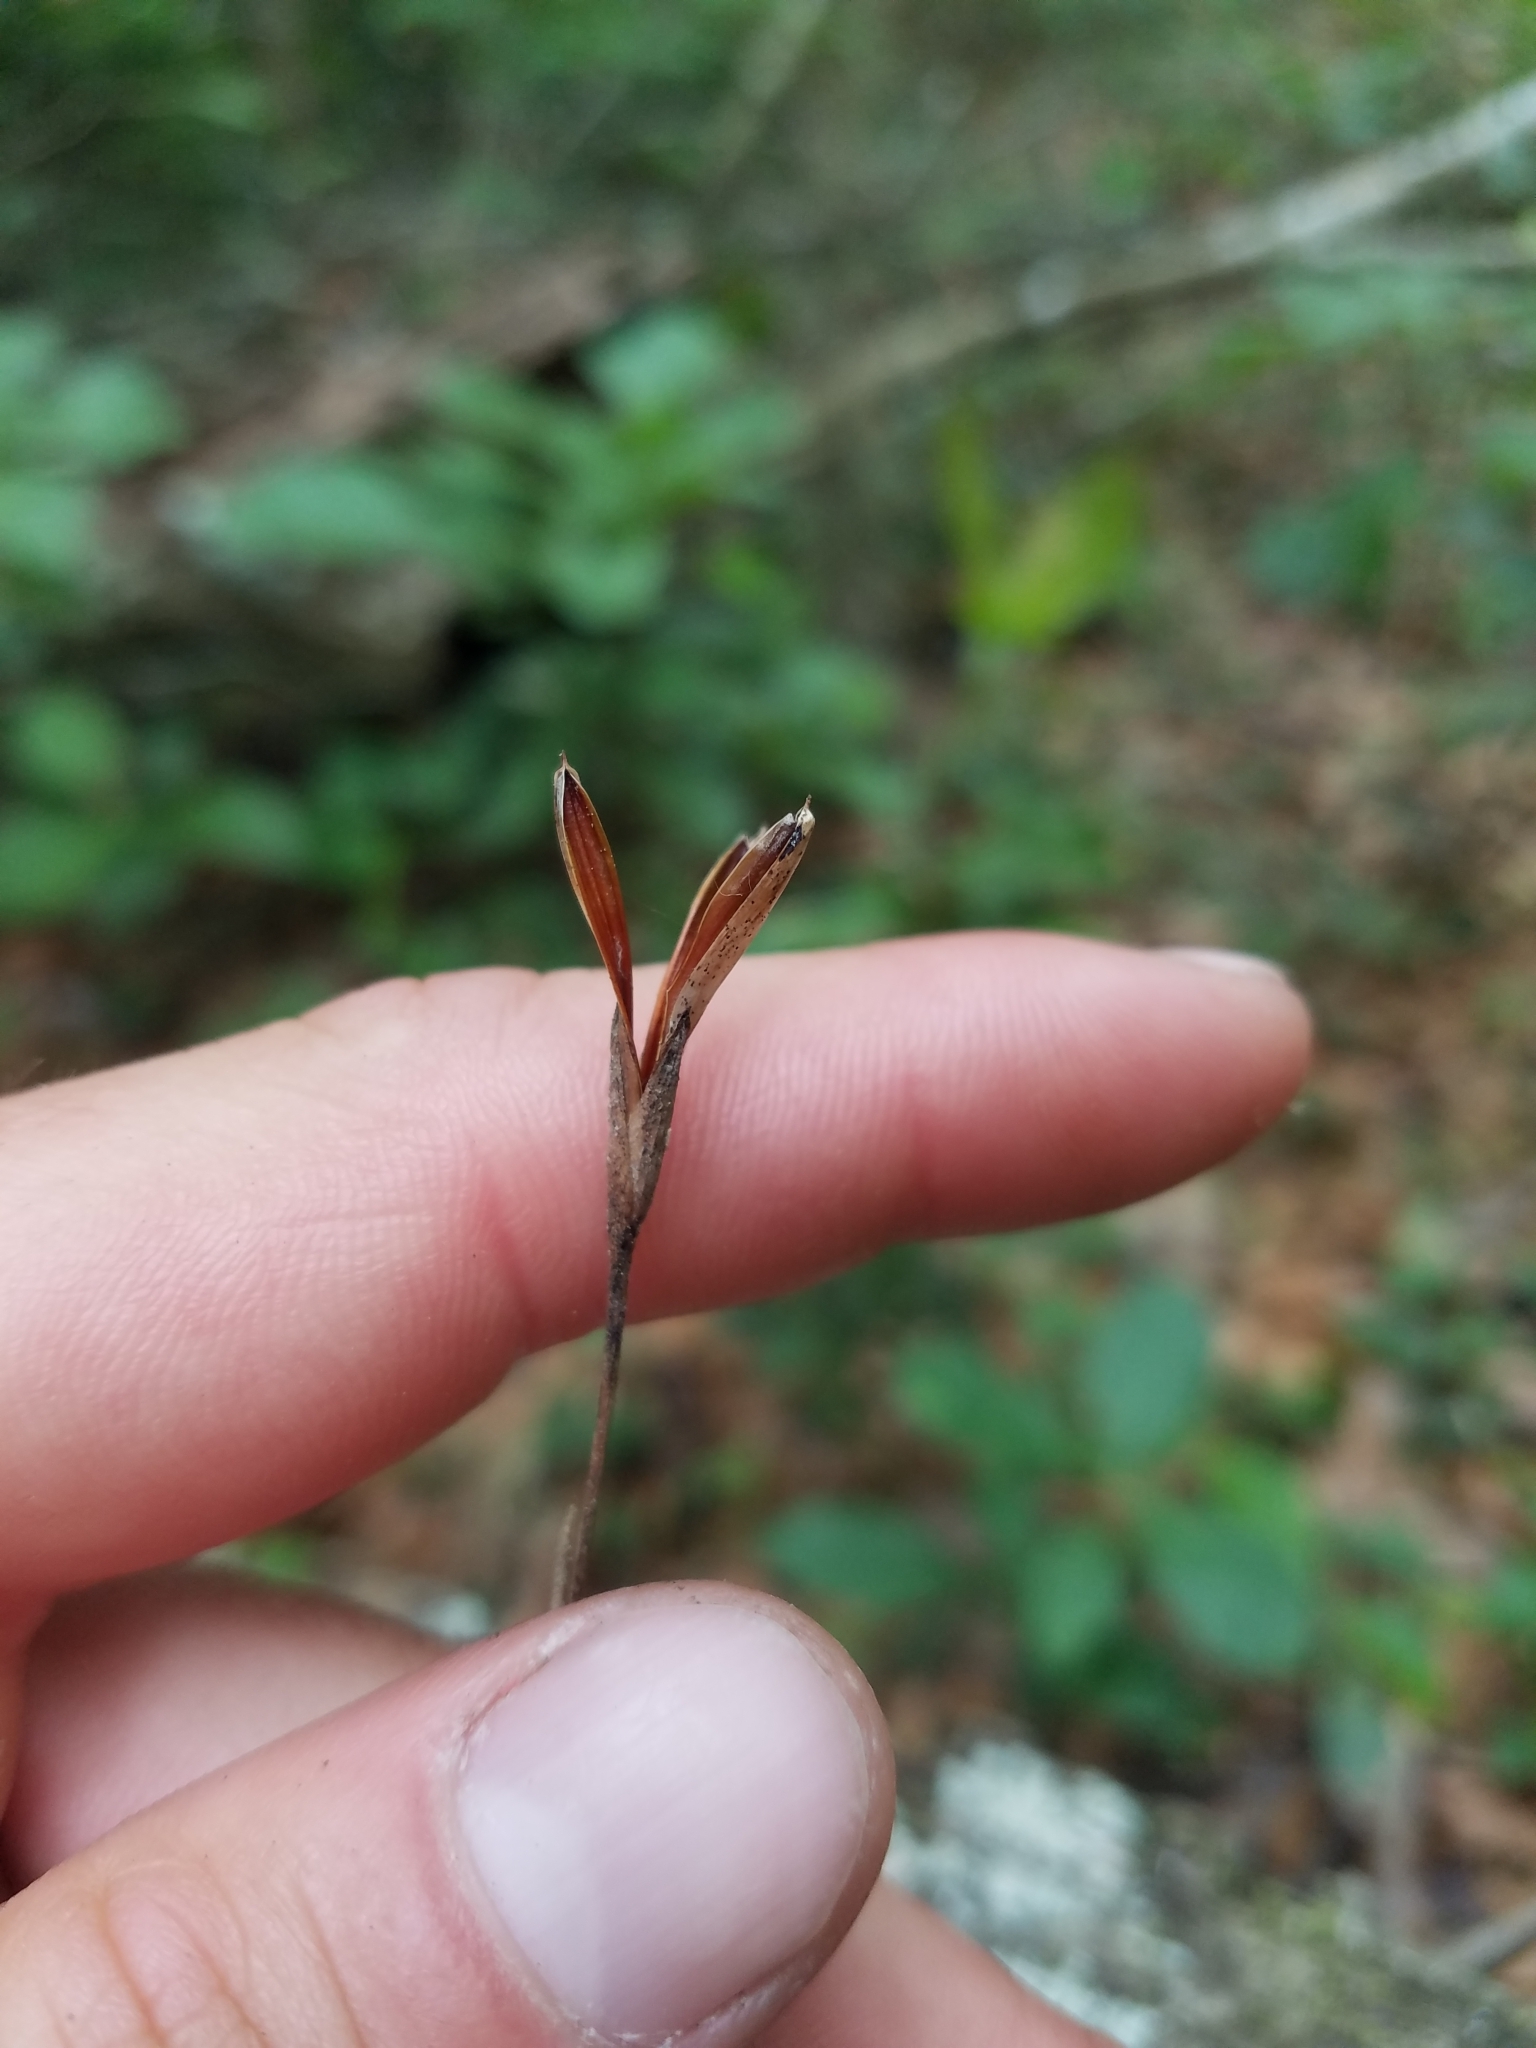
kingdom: Plantae
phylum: Tracheophyta
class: Liliopsida
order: Poales
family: Bromeliaceae
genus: Tillandsia
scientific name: Tillandsia recurvata
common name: Small ballmoss
